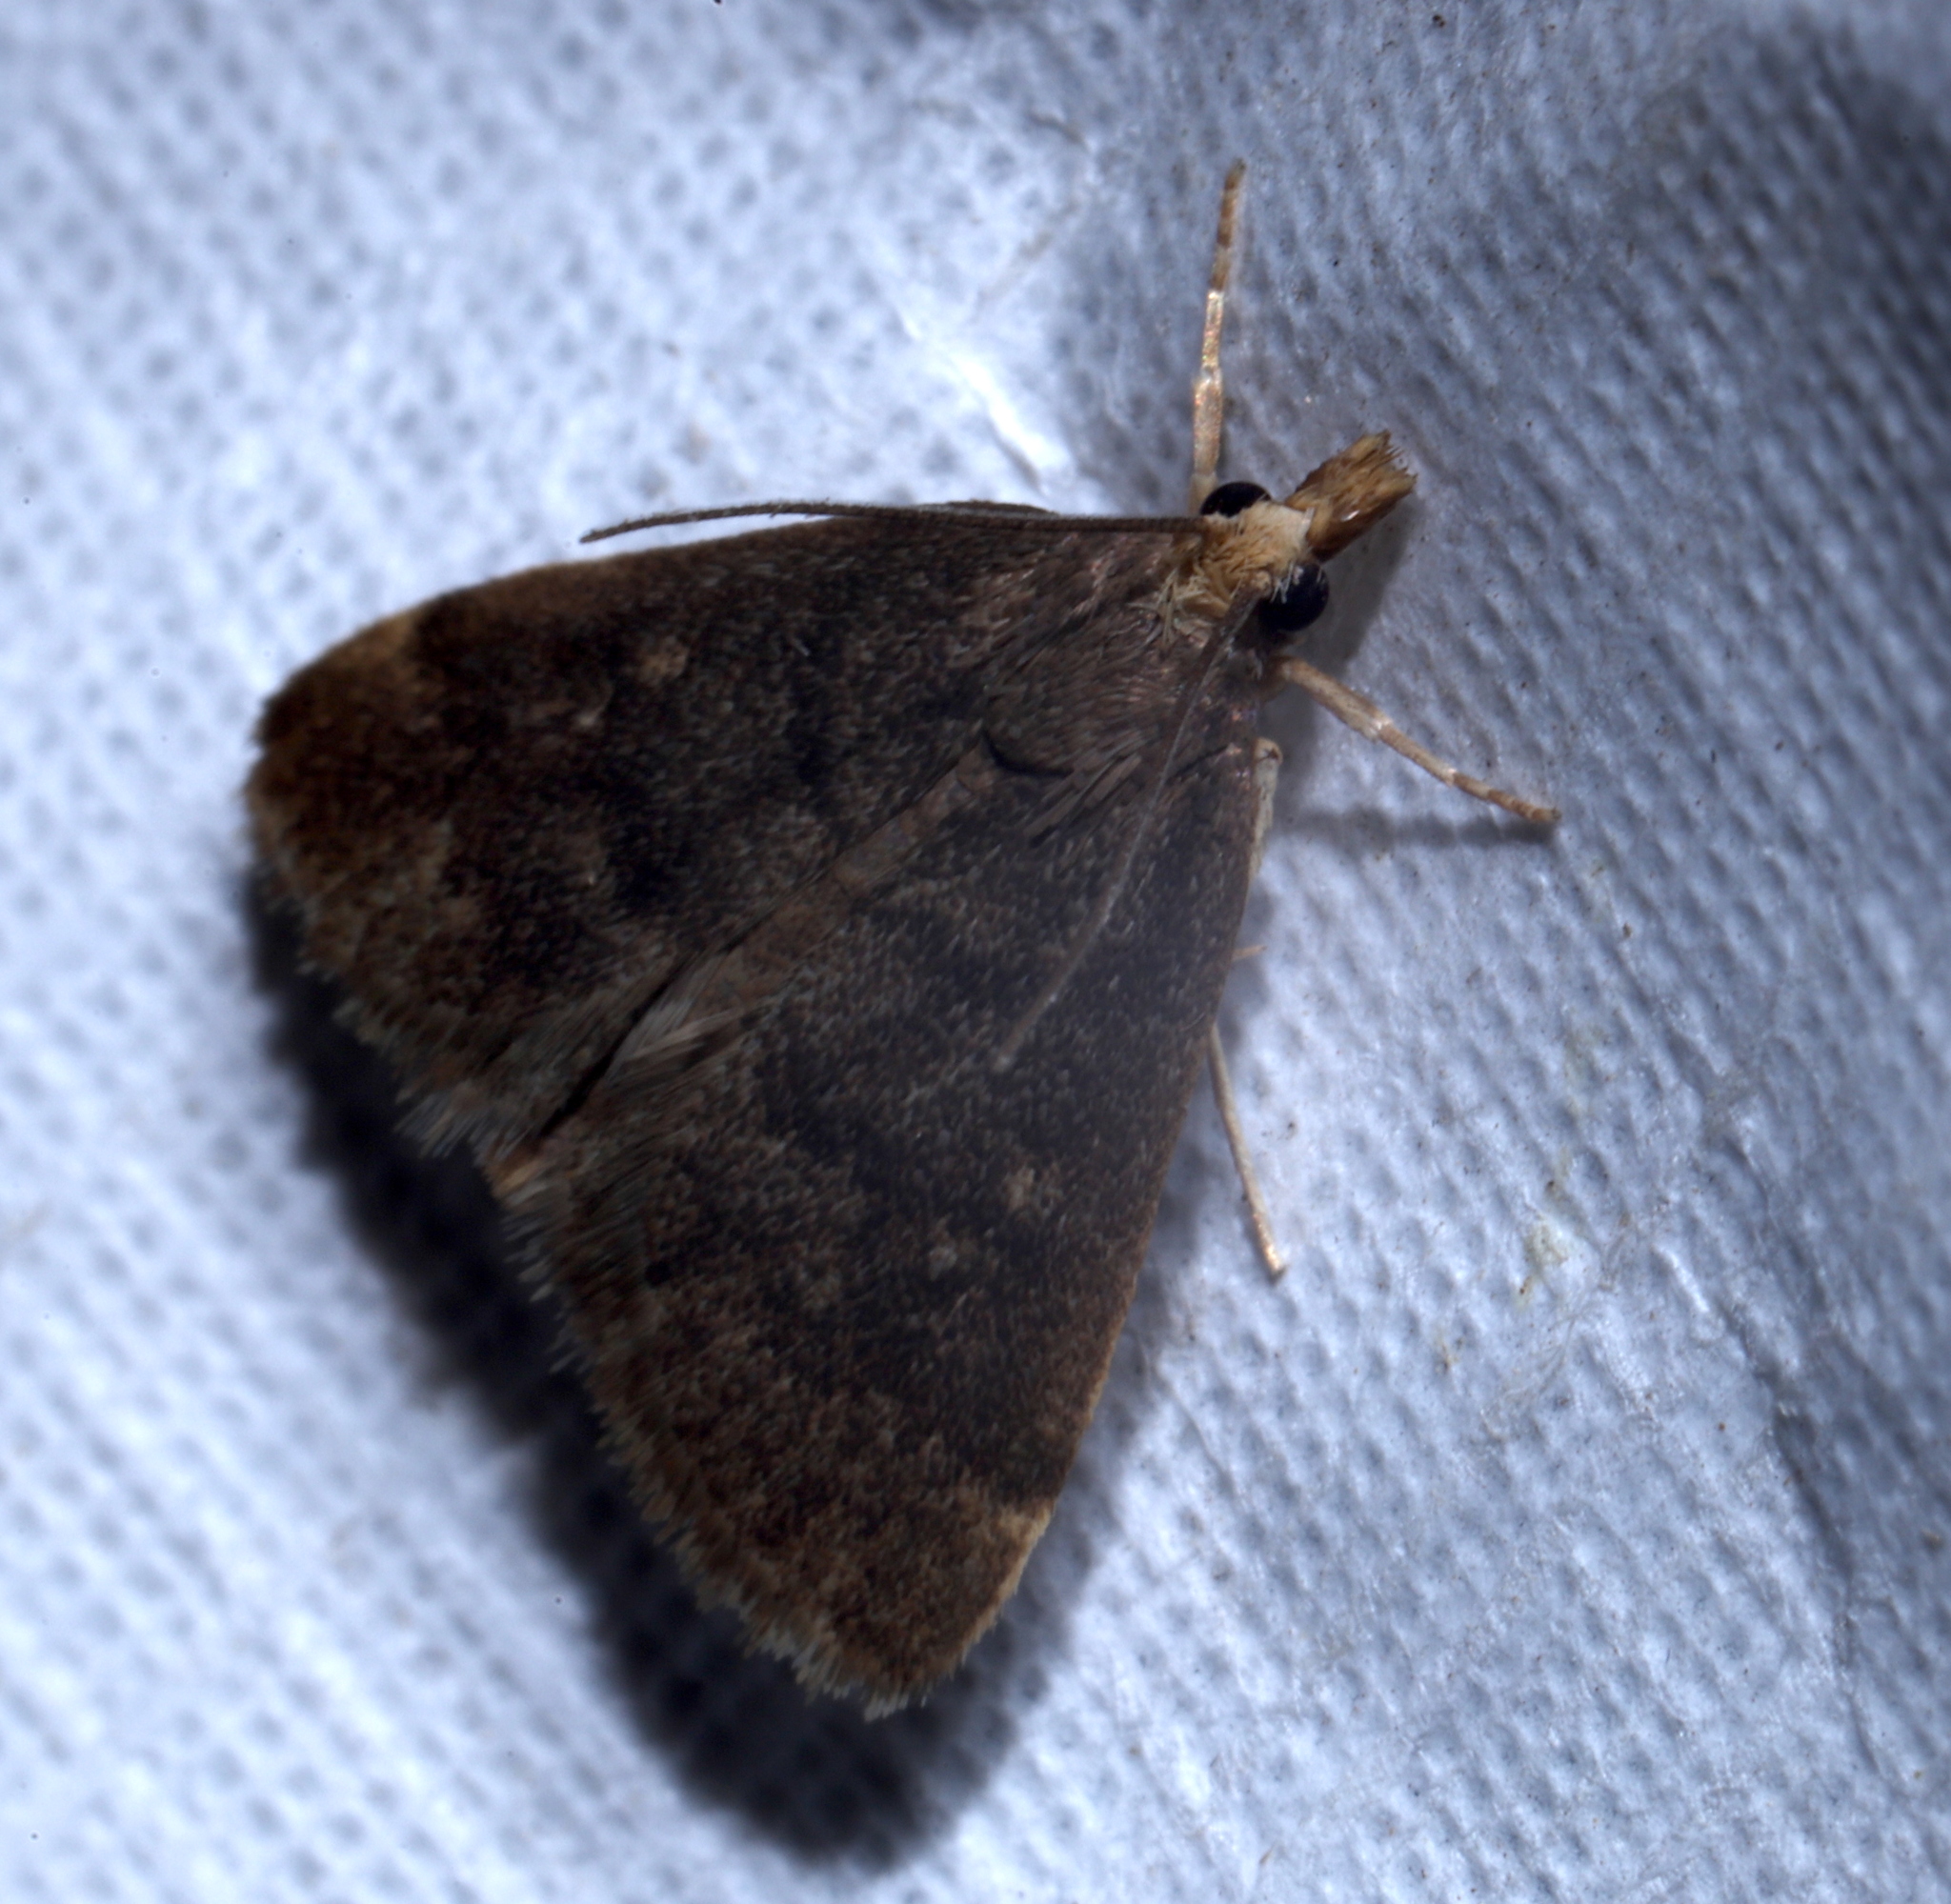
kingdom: Animalia
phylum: Arthropoda
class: Insecta
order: Lepidoptera
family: Crambidae
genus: Pyrausta
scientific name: Pyrausta merrickalis
